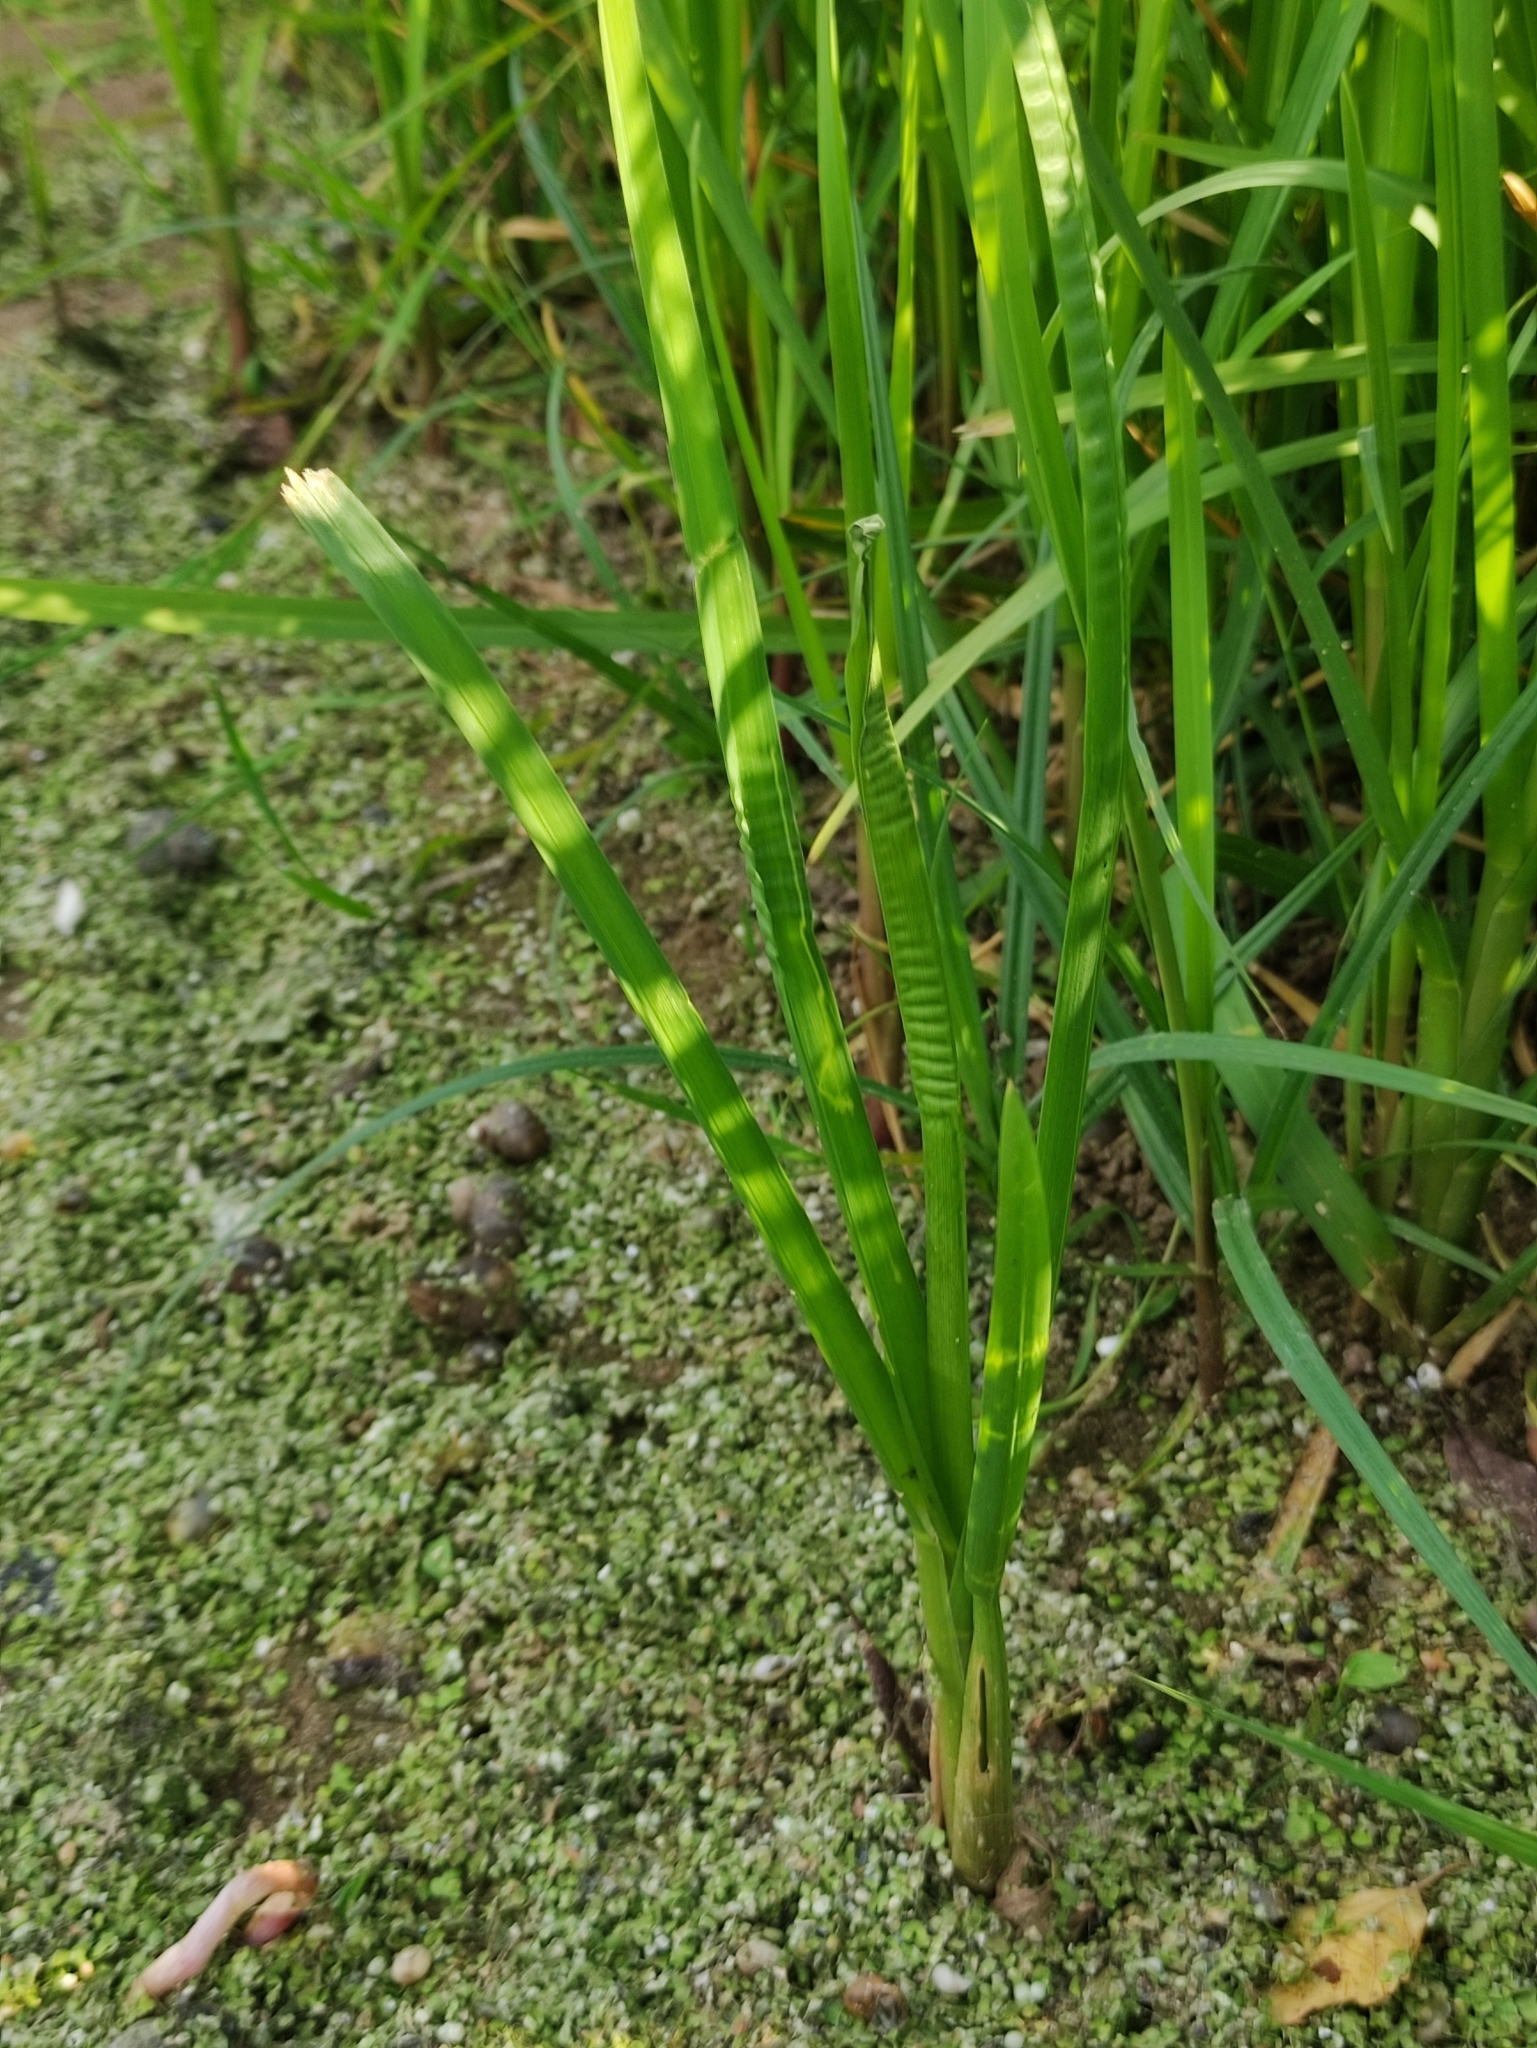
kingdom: Plantae
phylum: Tracheophyta
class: Liliopsida
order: Poales
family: Poaceae
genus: Glyceria
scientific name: Glyceria maxima
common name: Reed mannagrass
